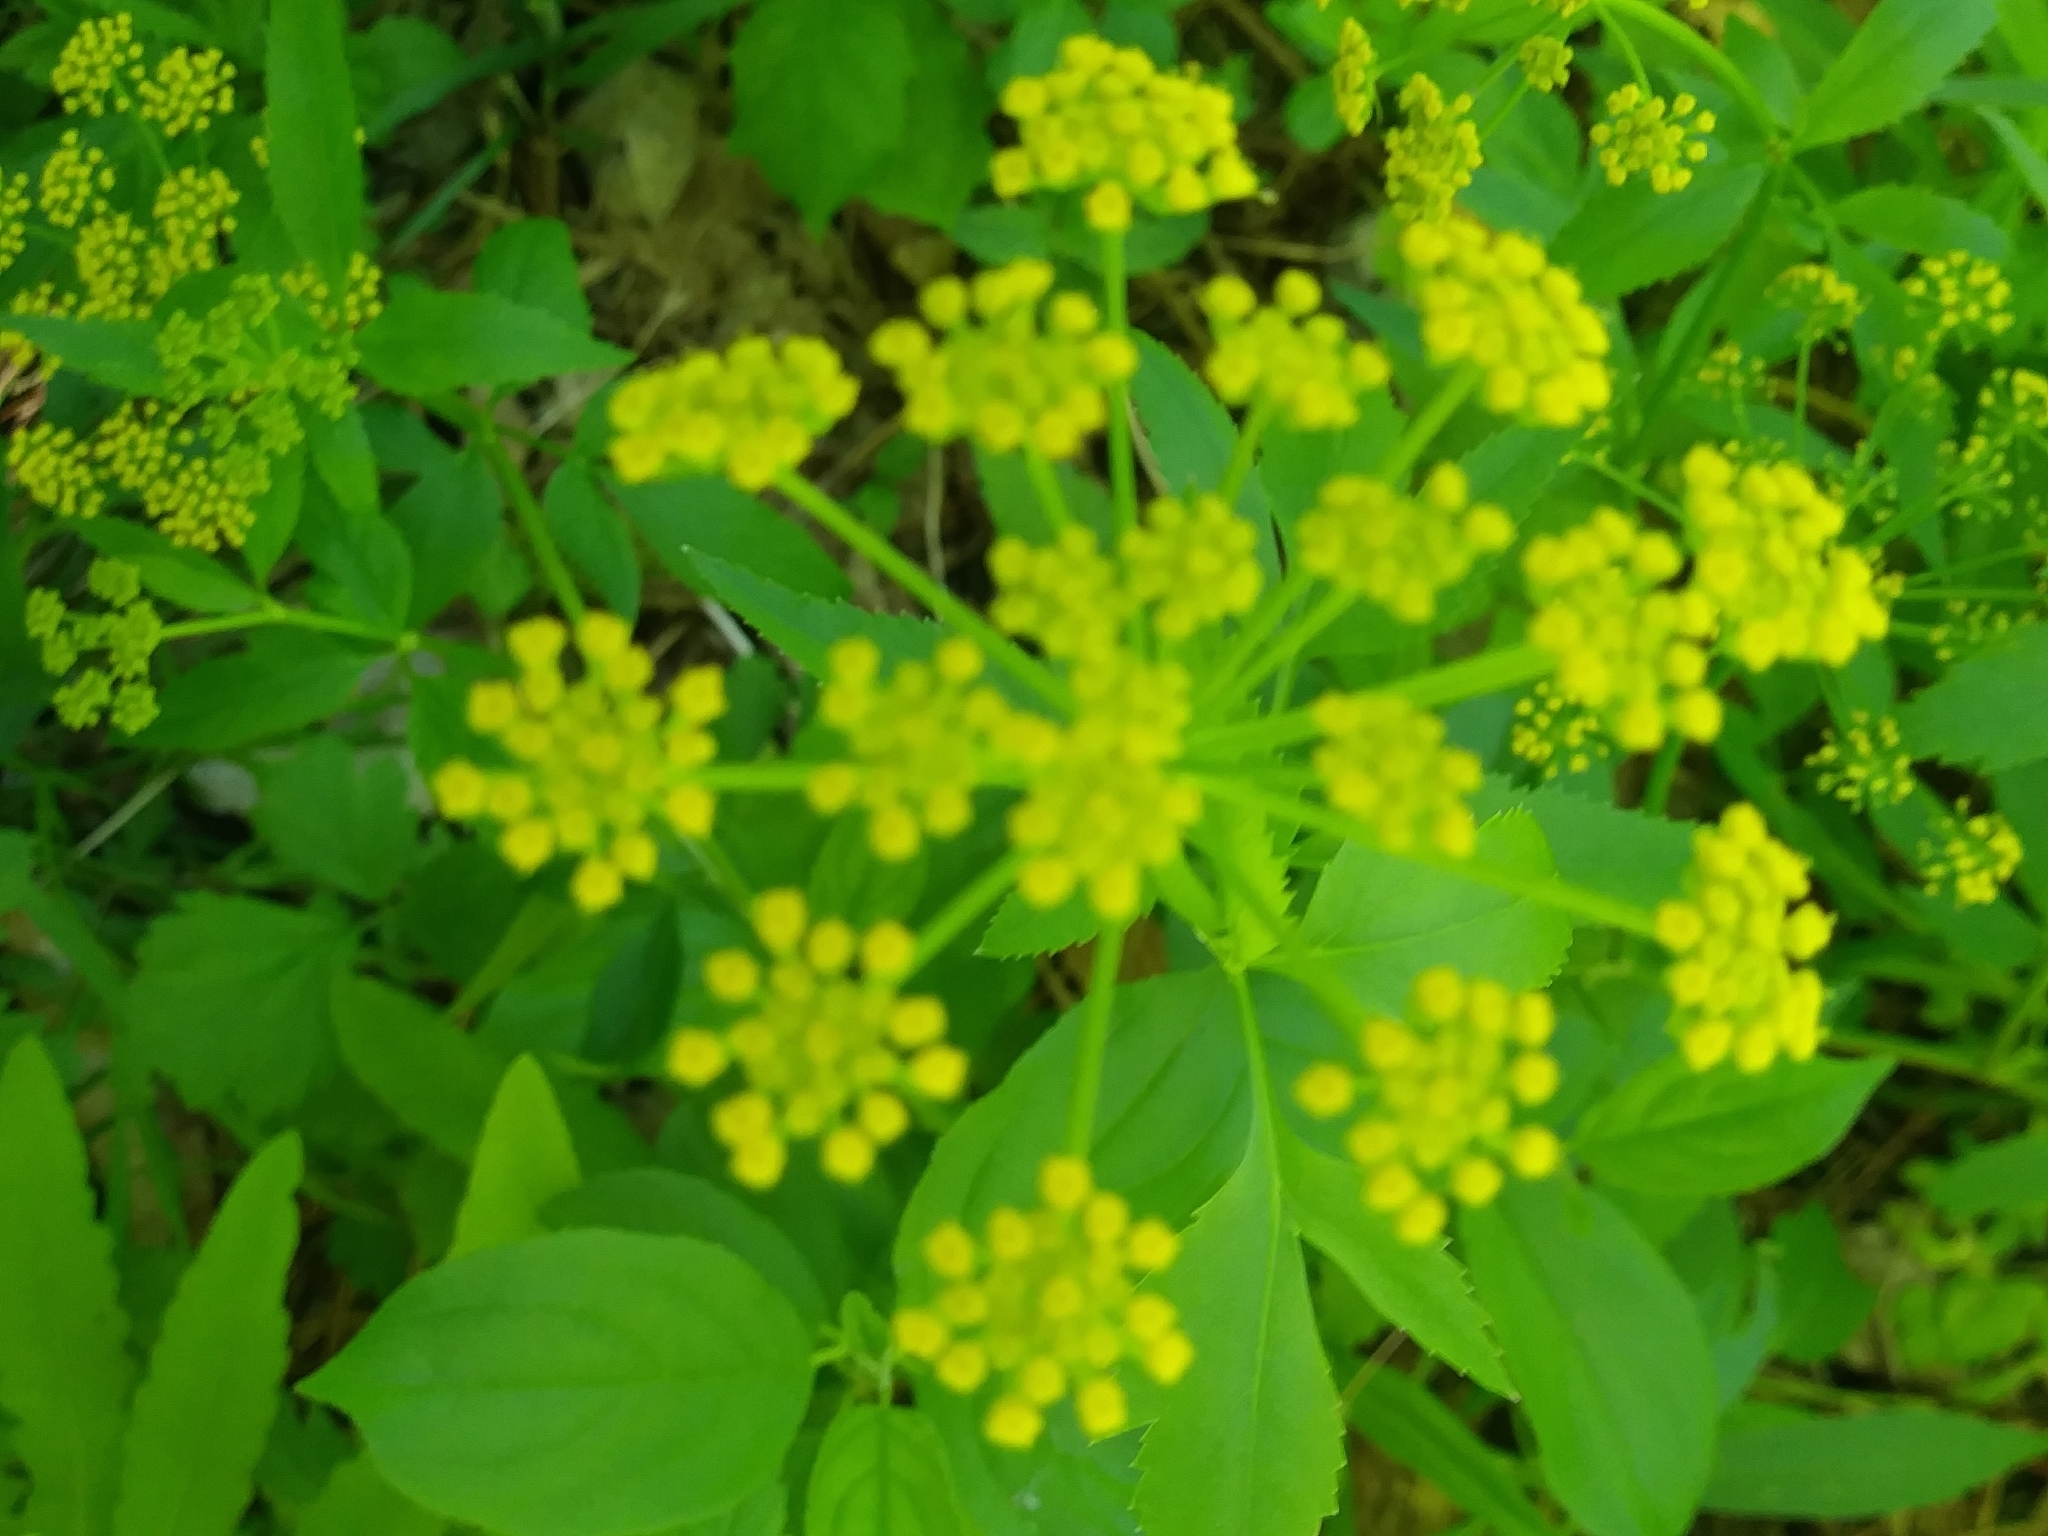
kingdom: Plantae
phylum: Tracheophyta
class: Magnoliopsida
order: Apiales
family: Apiaceae
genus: Zizia
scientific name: Zizia aurea
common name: Golden alexanders
